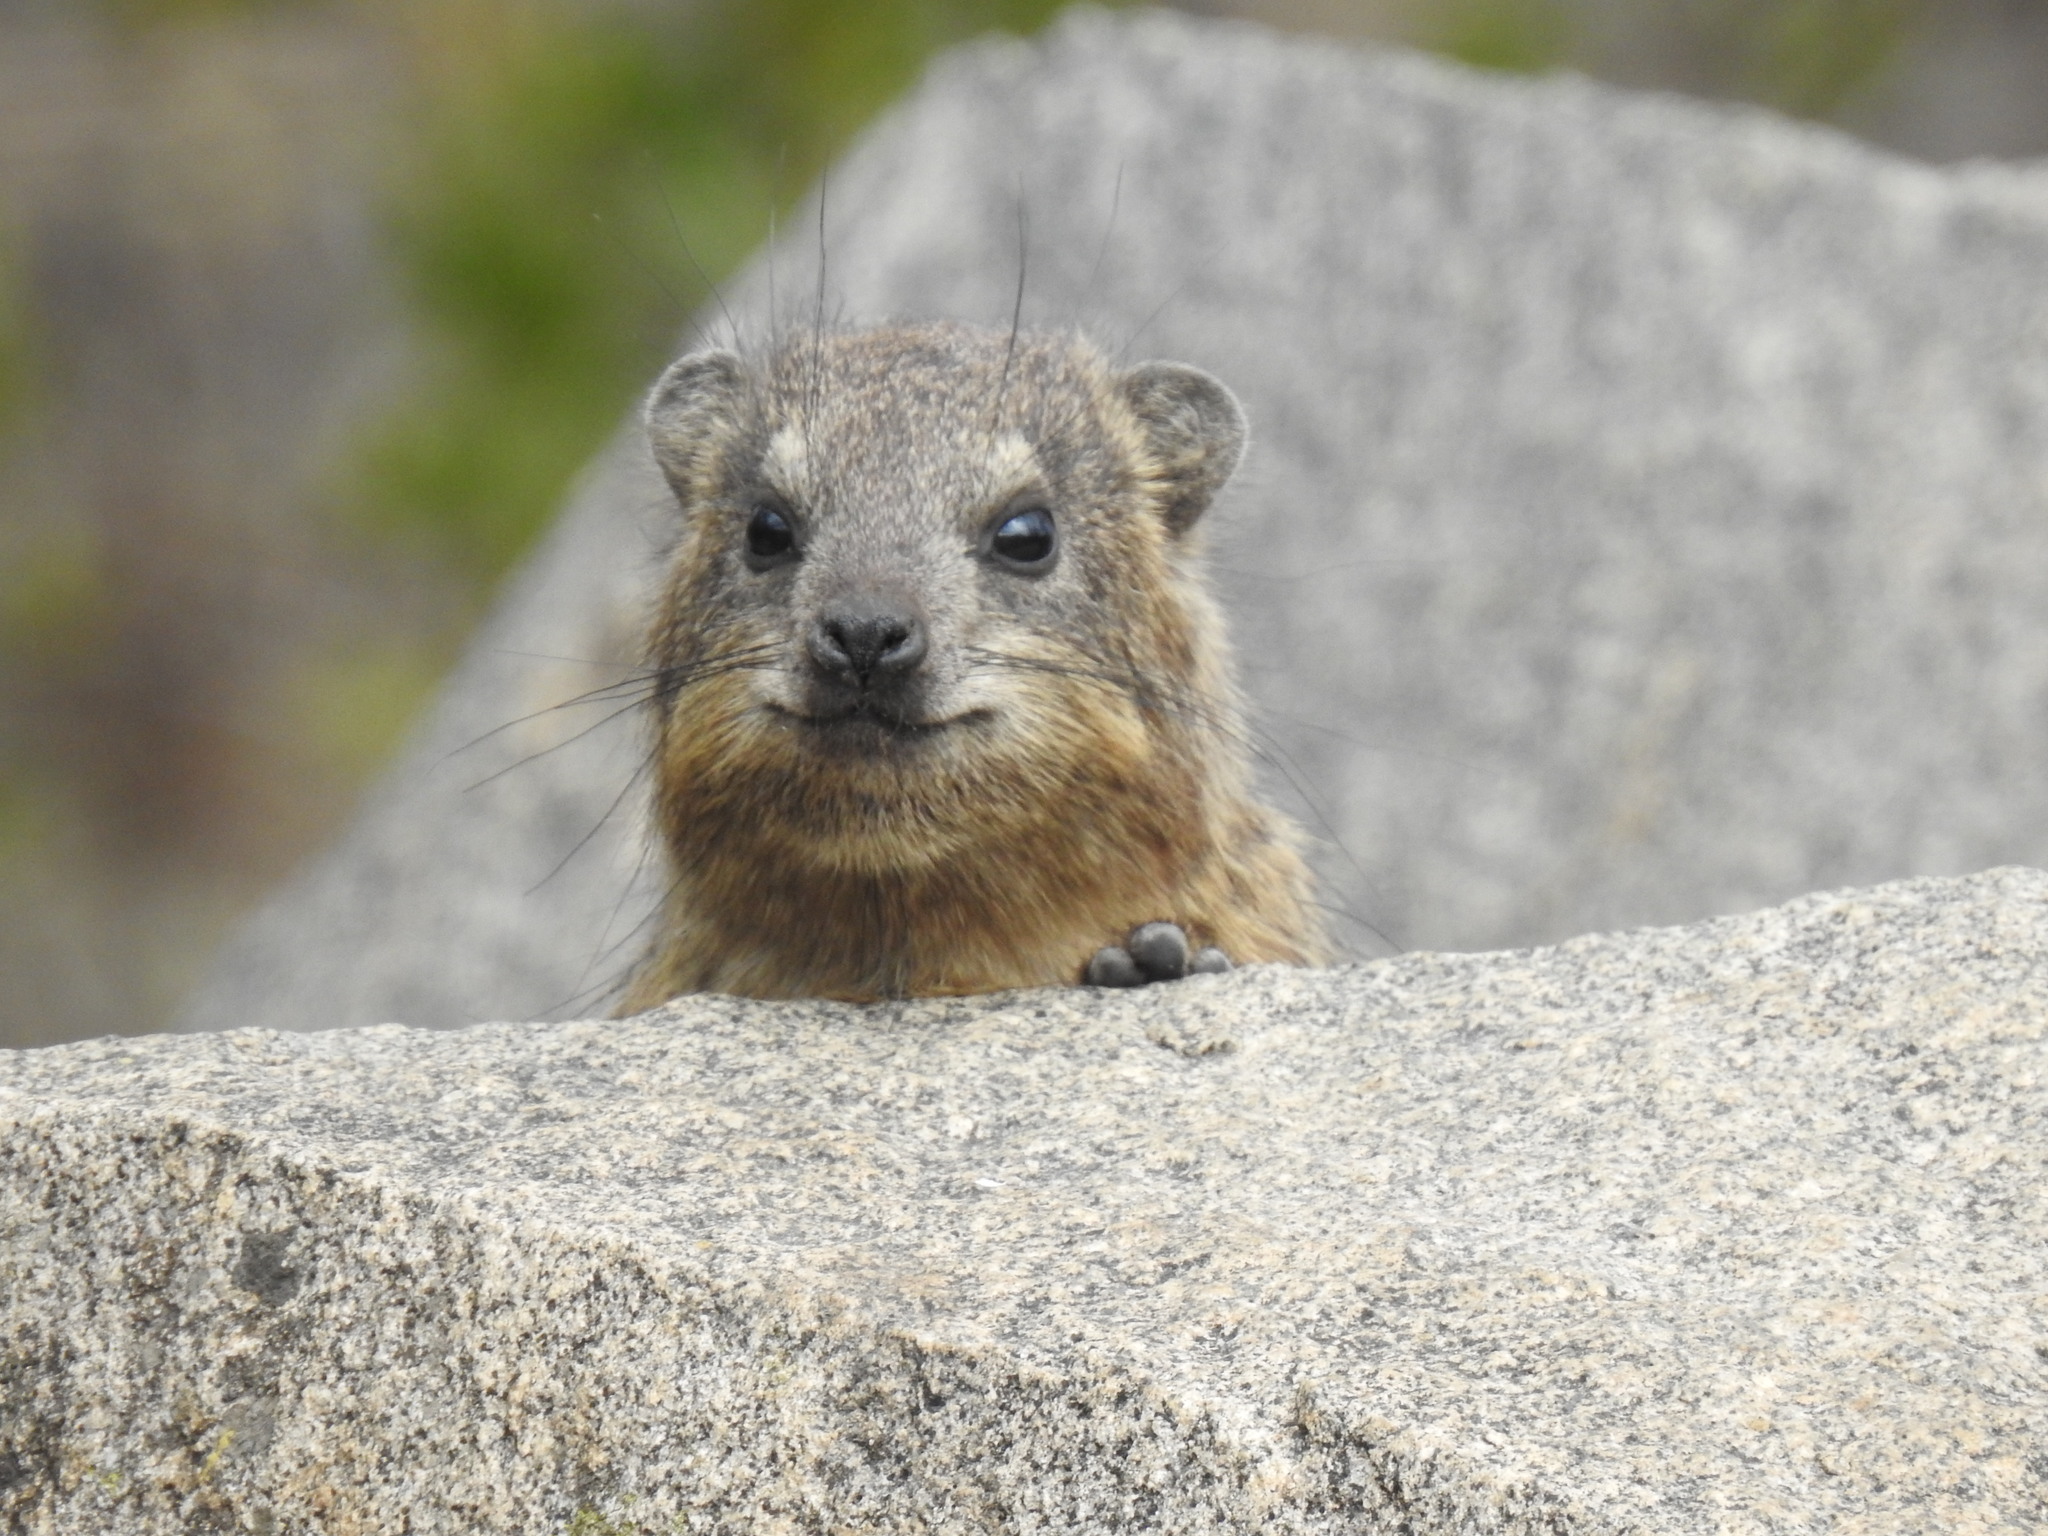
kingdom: Animalia
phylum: Chordata
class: Mammalia
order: Hyracoidea
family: Procaviidae
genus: Procavia
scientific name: Procavia capensis
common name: Rock hyrax
